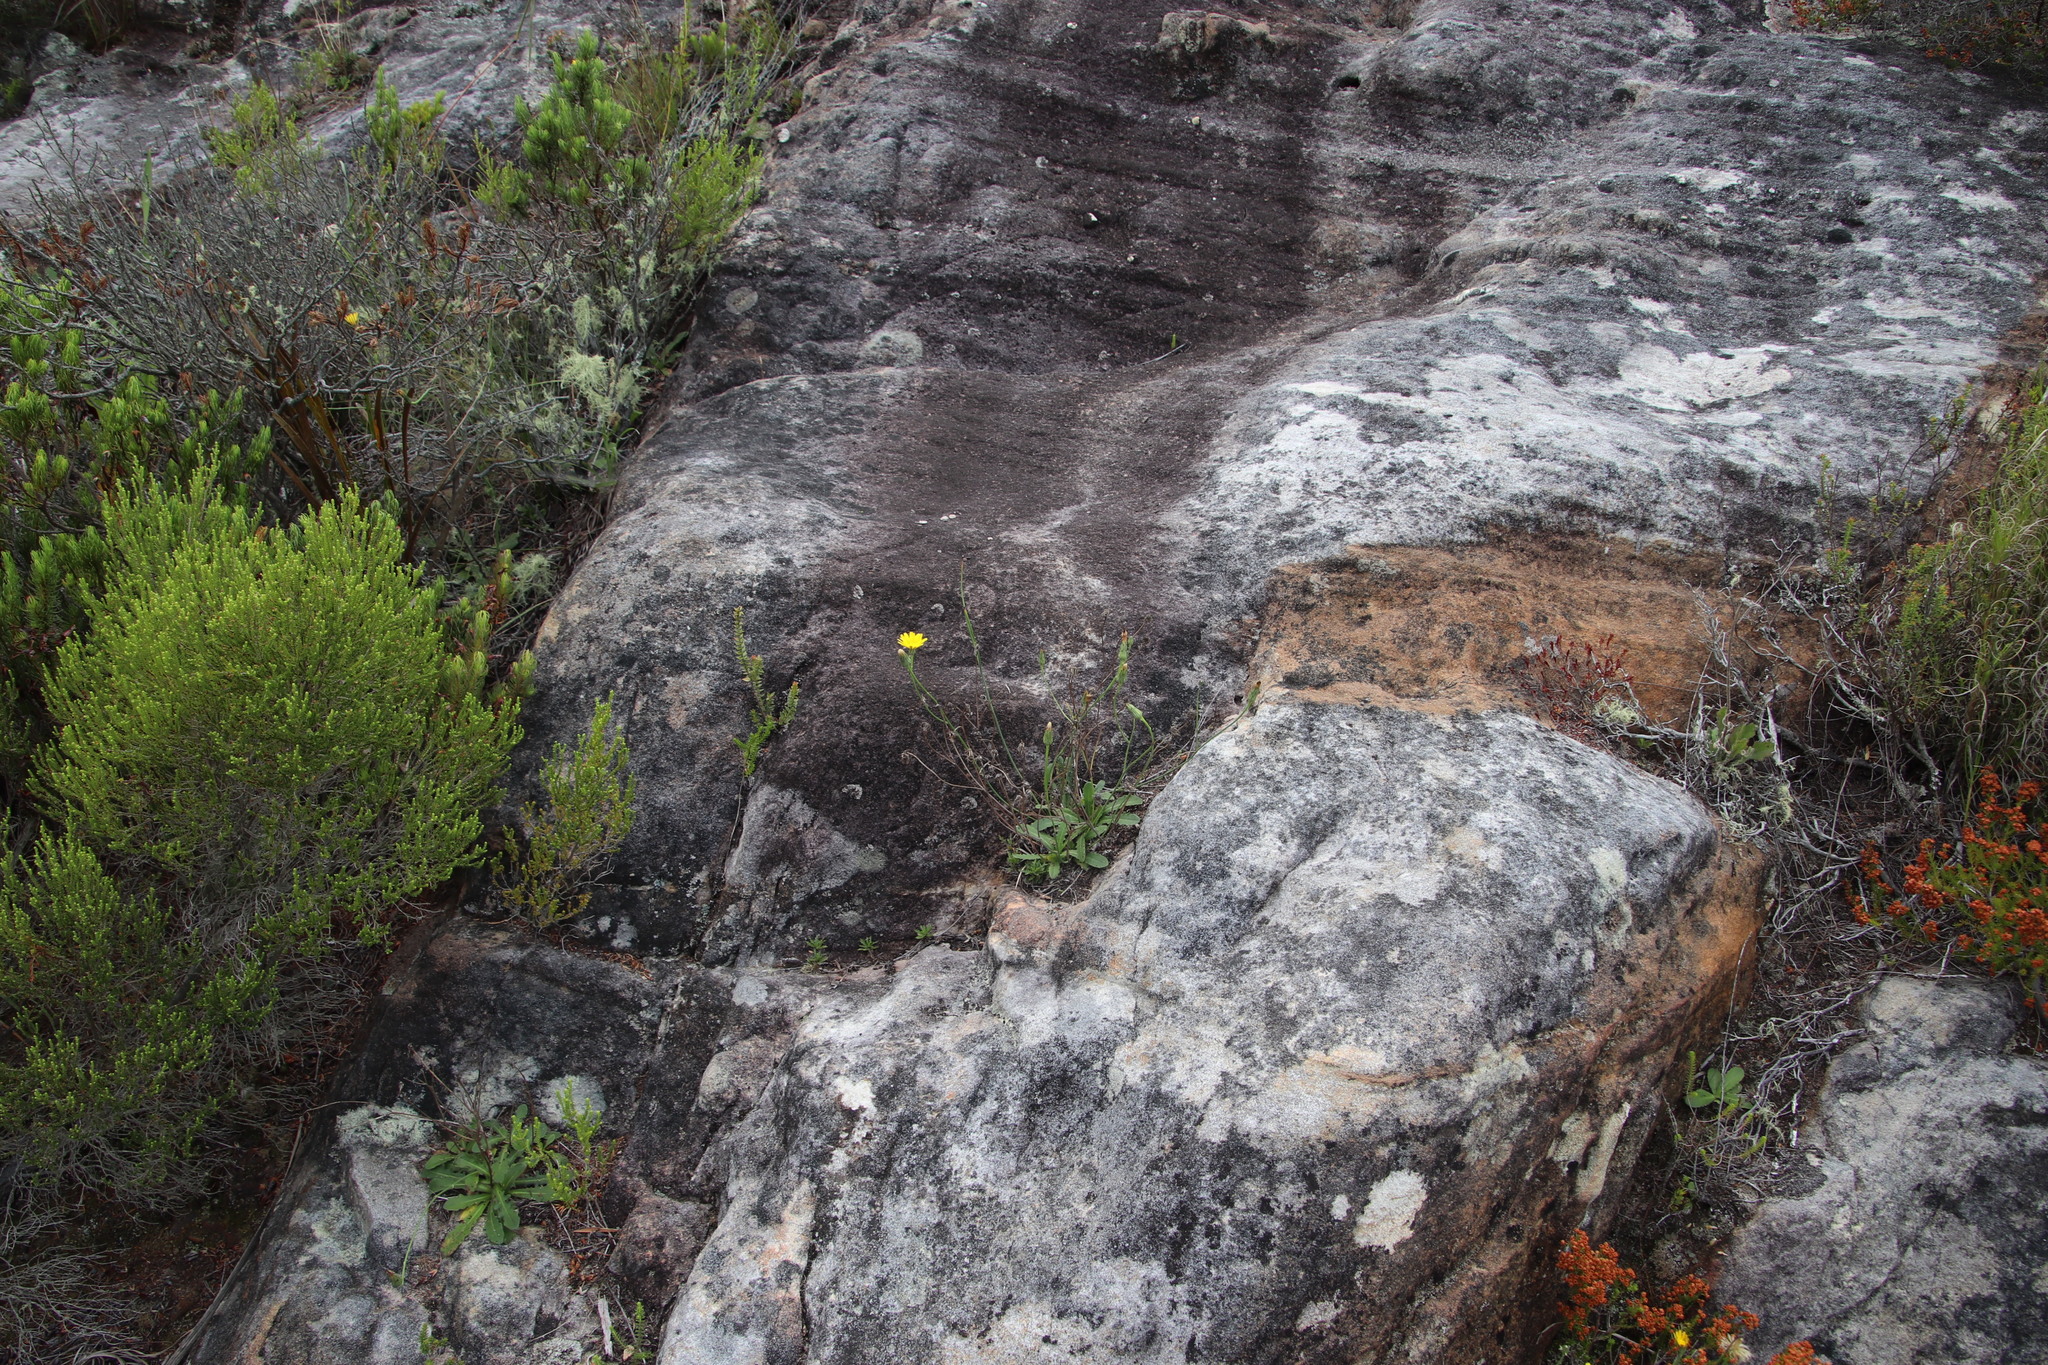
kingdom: Plantae
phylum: Tracheophyta
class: Magnoliopsida
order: Asterales
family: Asteraceae
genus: Hypochaeris
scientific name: Hypochaeris radicata
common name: Flatweed
